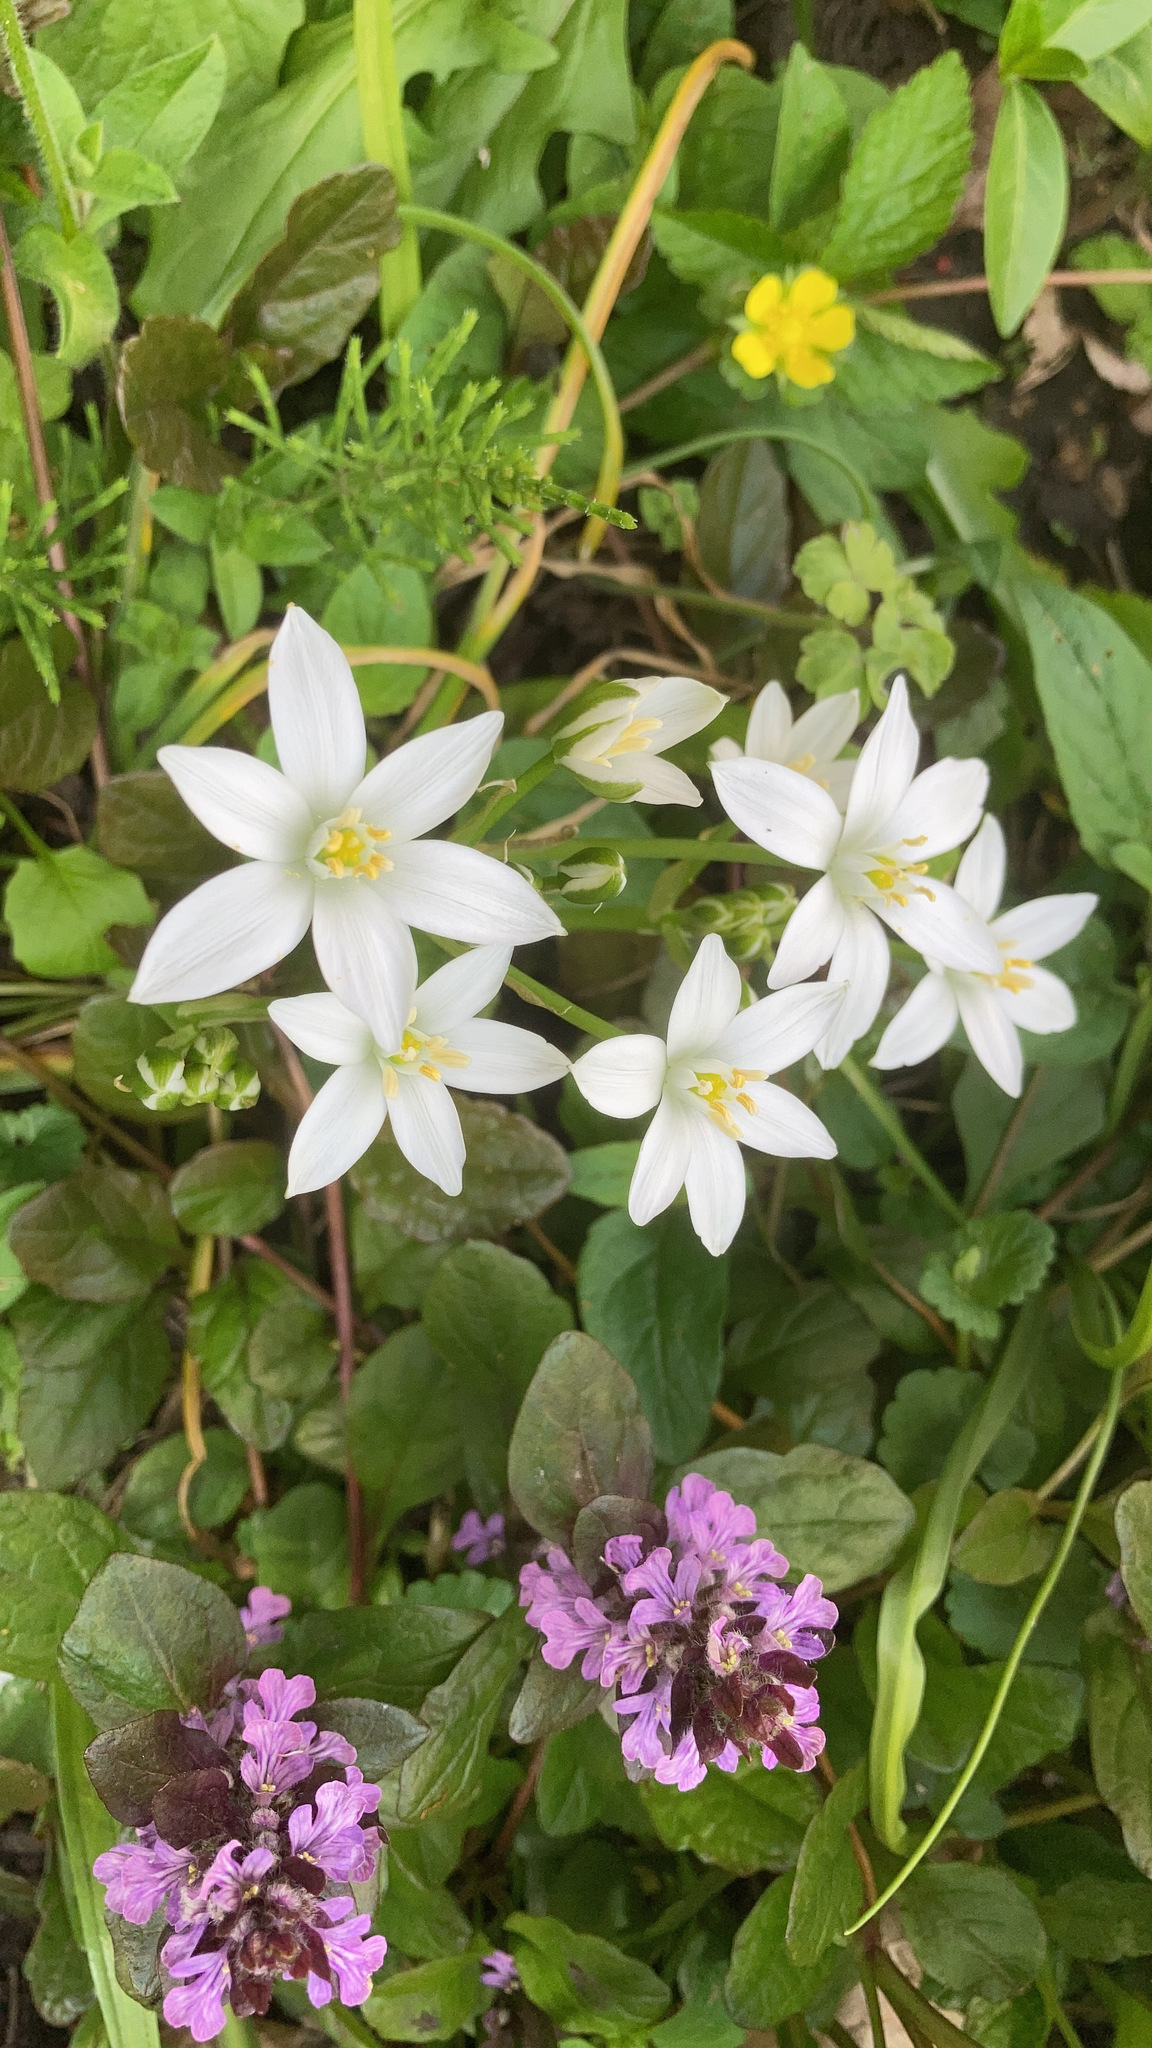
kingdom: Plantae
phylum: Tracheophyta
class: Liliopsida
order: Asparagales
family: Asparagaceae
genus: Ornithogalum
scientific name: Ornithogalum umbellatum
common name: Garden star-of-bethlehem
